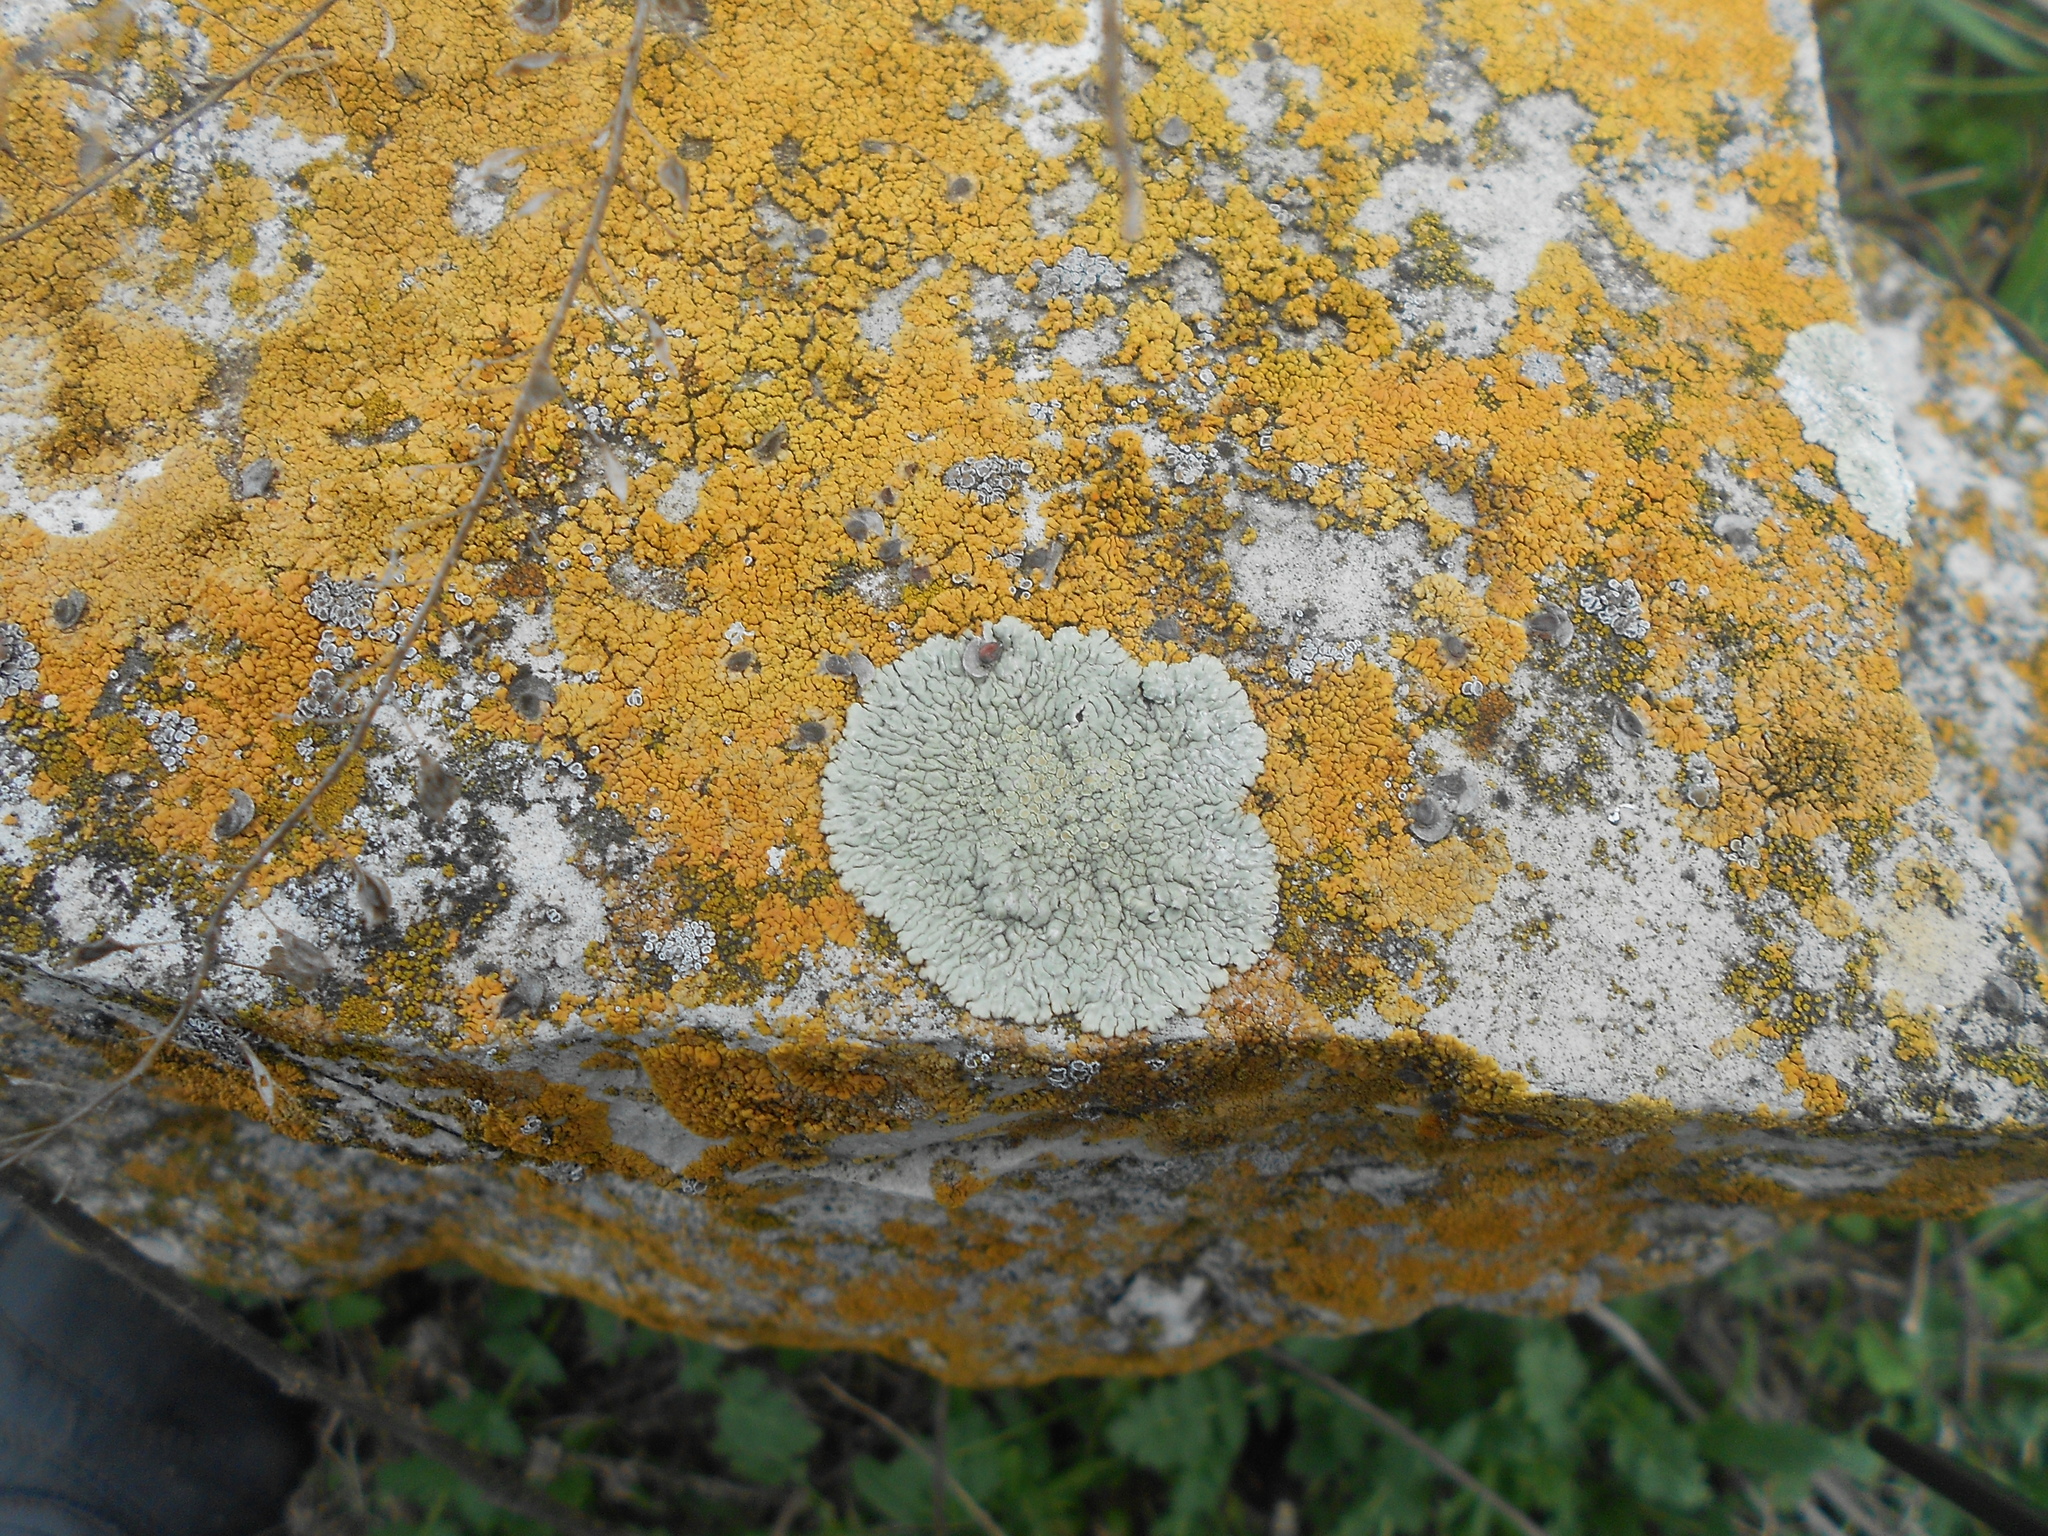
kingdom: Fungi
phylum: Ascomycota
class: Lecanoromycetes
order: Lecanorales
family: Lecanoraceae
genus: Protoparmeliopsis
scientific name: Protoparmeliopsis muralis
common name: Stonewall rim lichen
